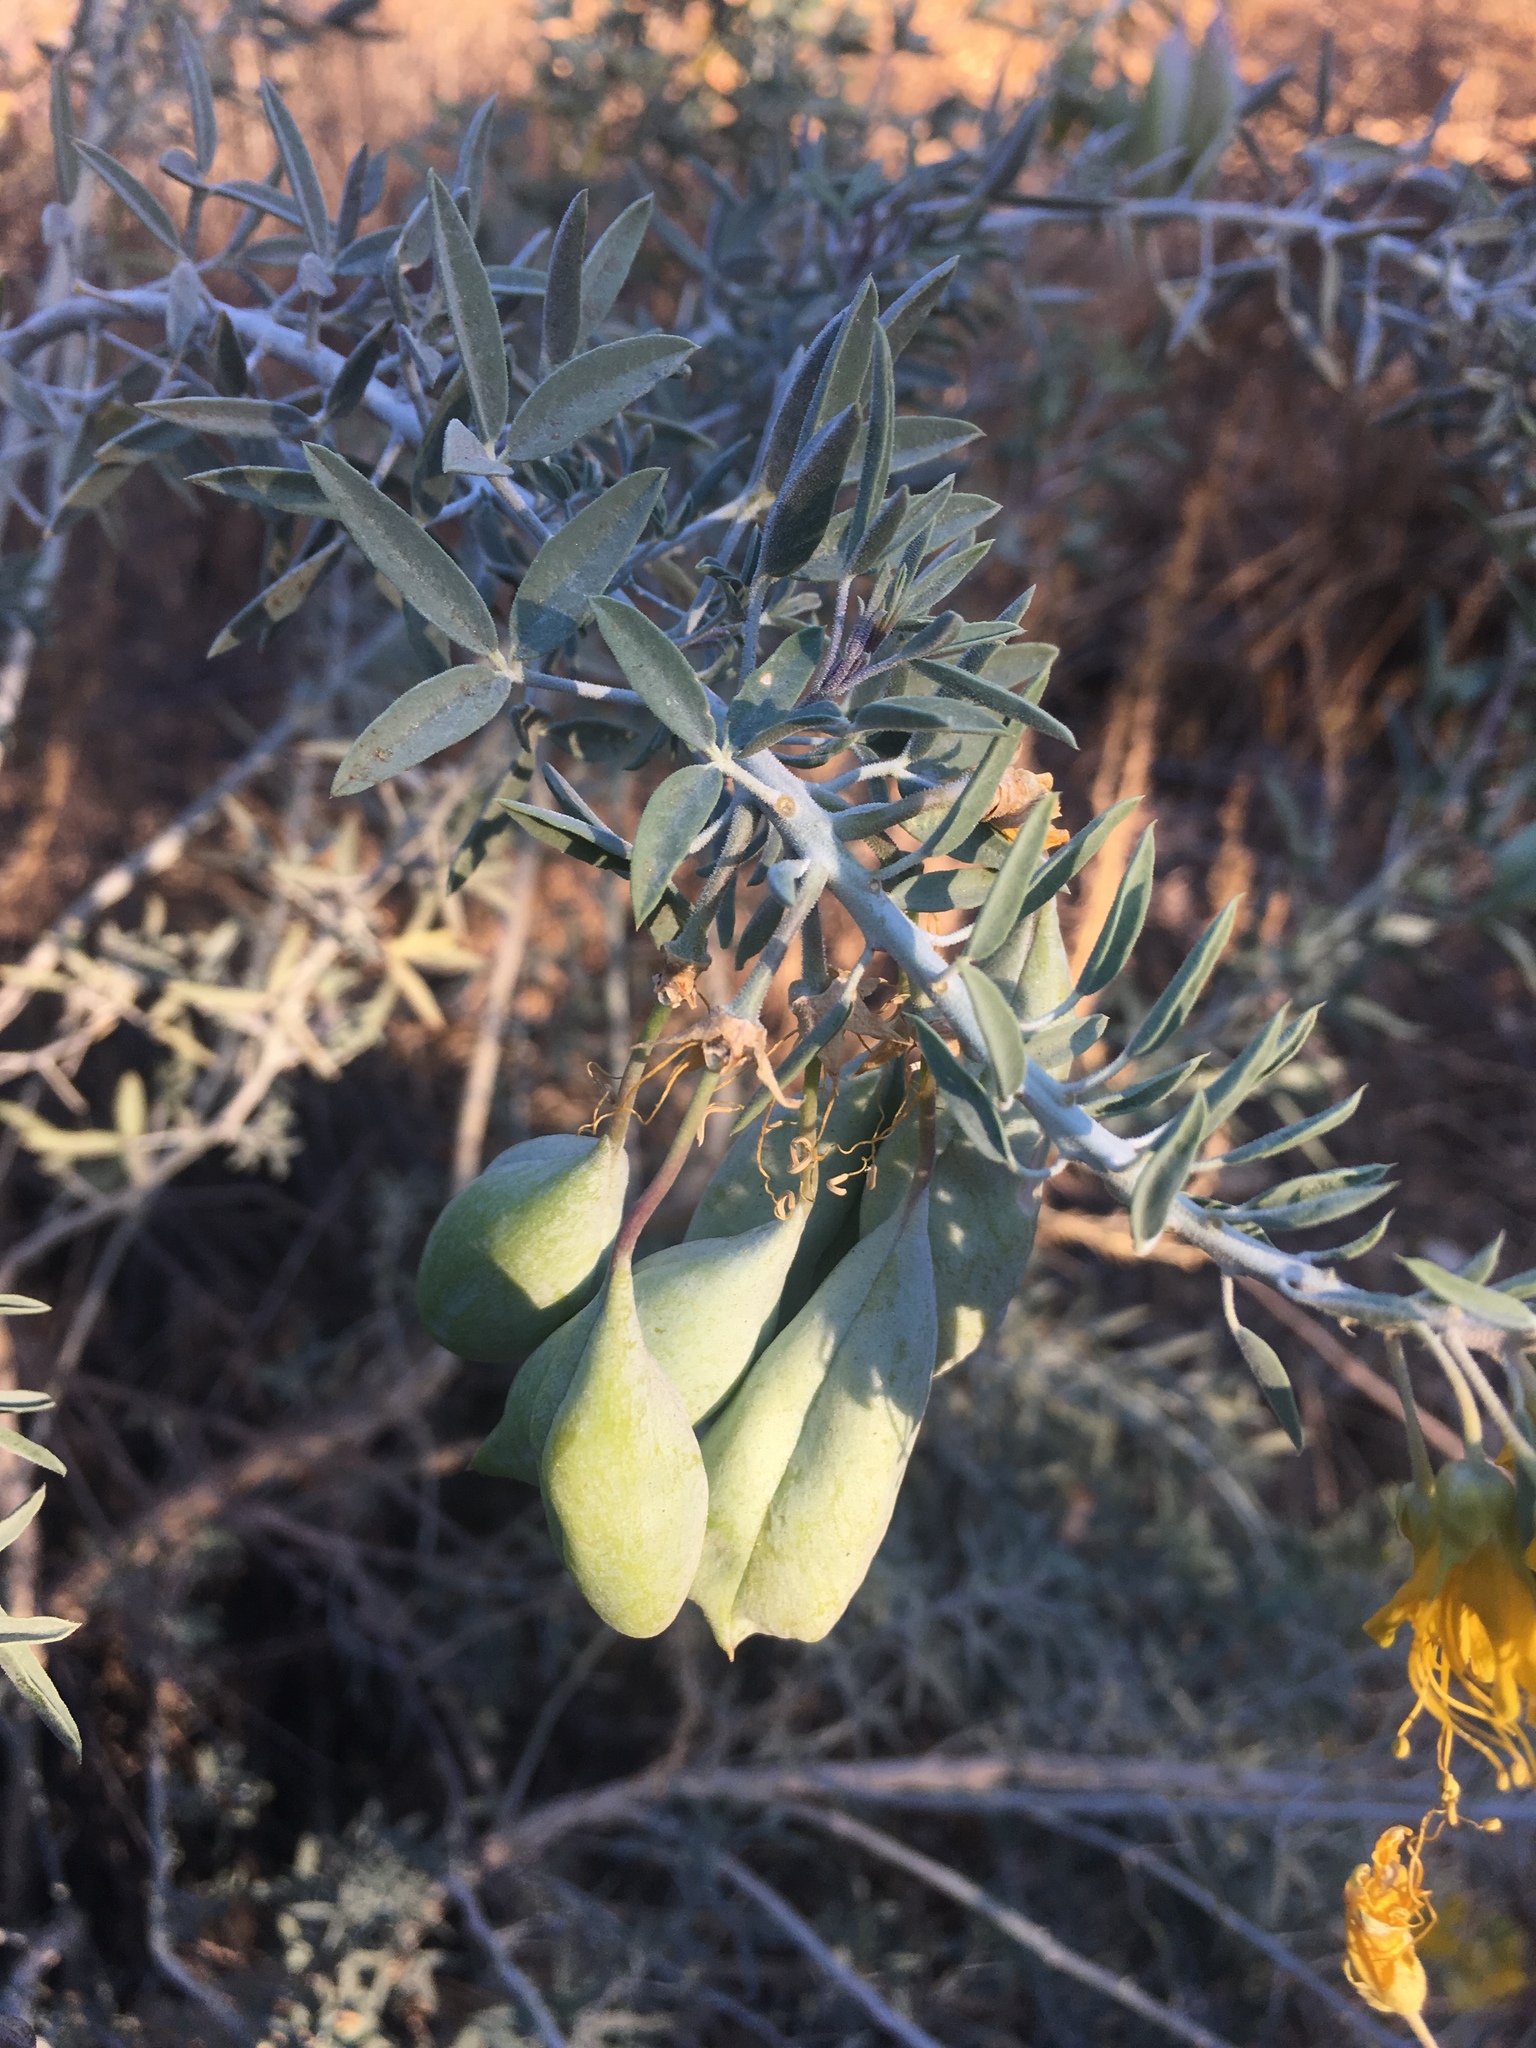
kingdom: Plantae
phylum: Tracheophyta
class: Magnoliopsida
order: Brassicales
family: Cleomaceae
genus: Cleomella
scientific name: Cleomella arborea
